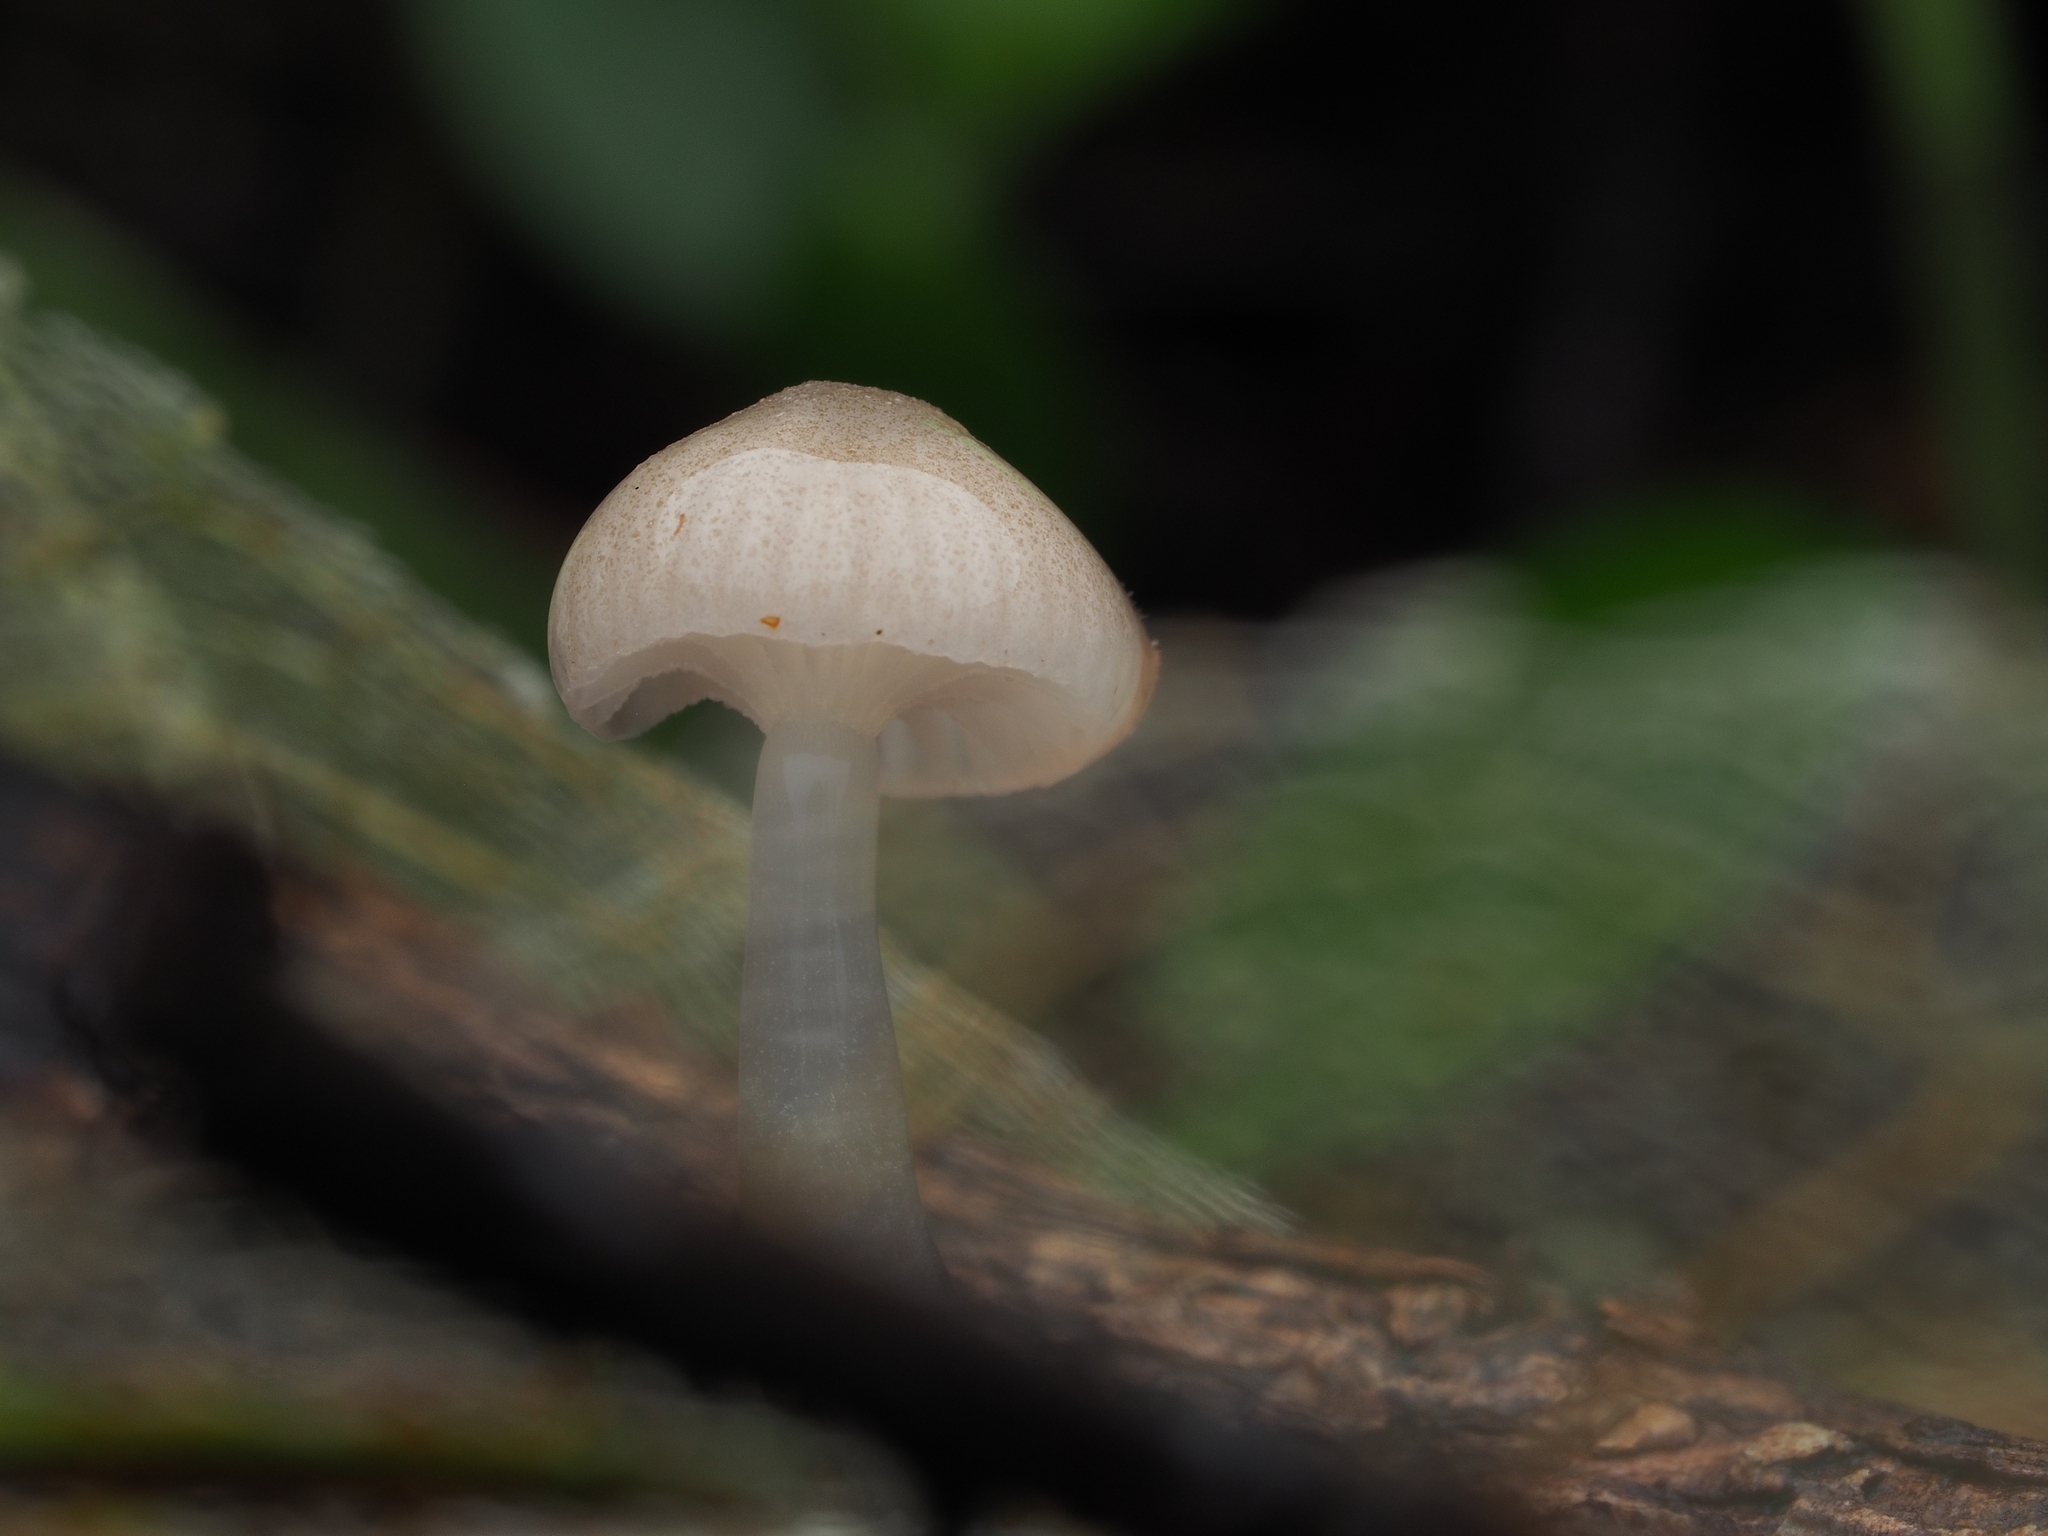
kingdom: Fungi
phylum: Basidiomycota
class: Agaricomycetes
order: Agaricales
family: Mycenaceae
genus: Roridomyces
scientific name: Roridomyces austrororidus
